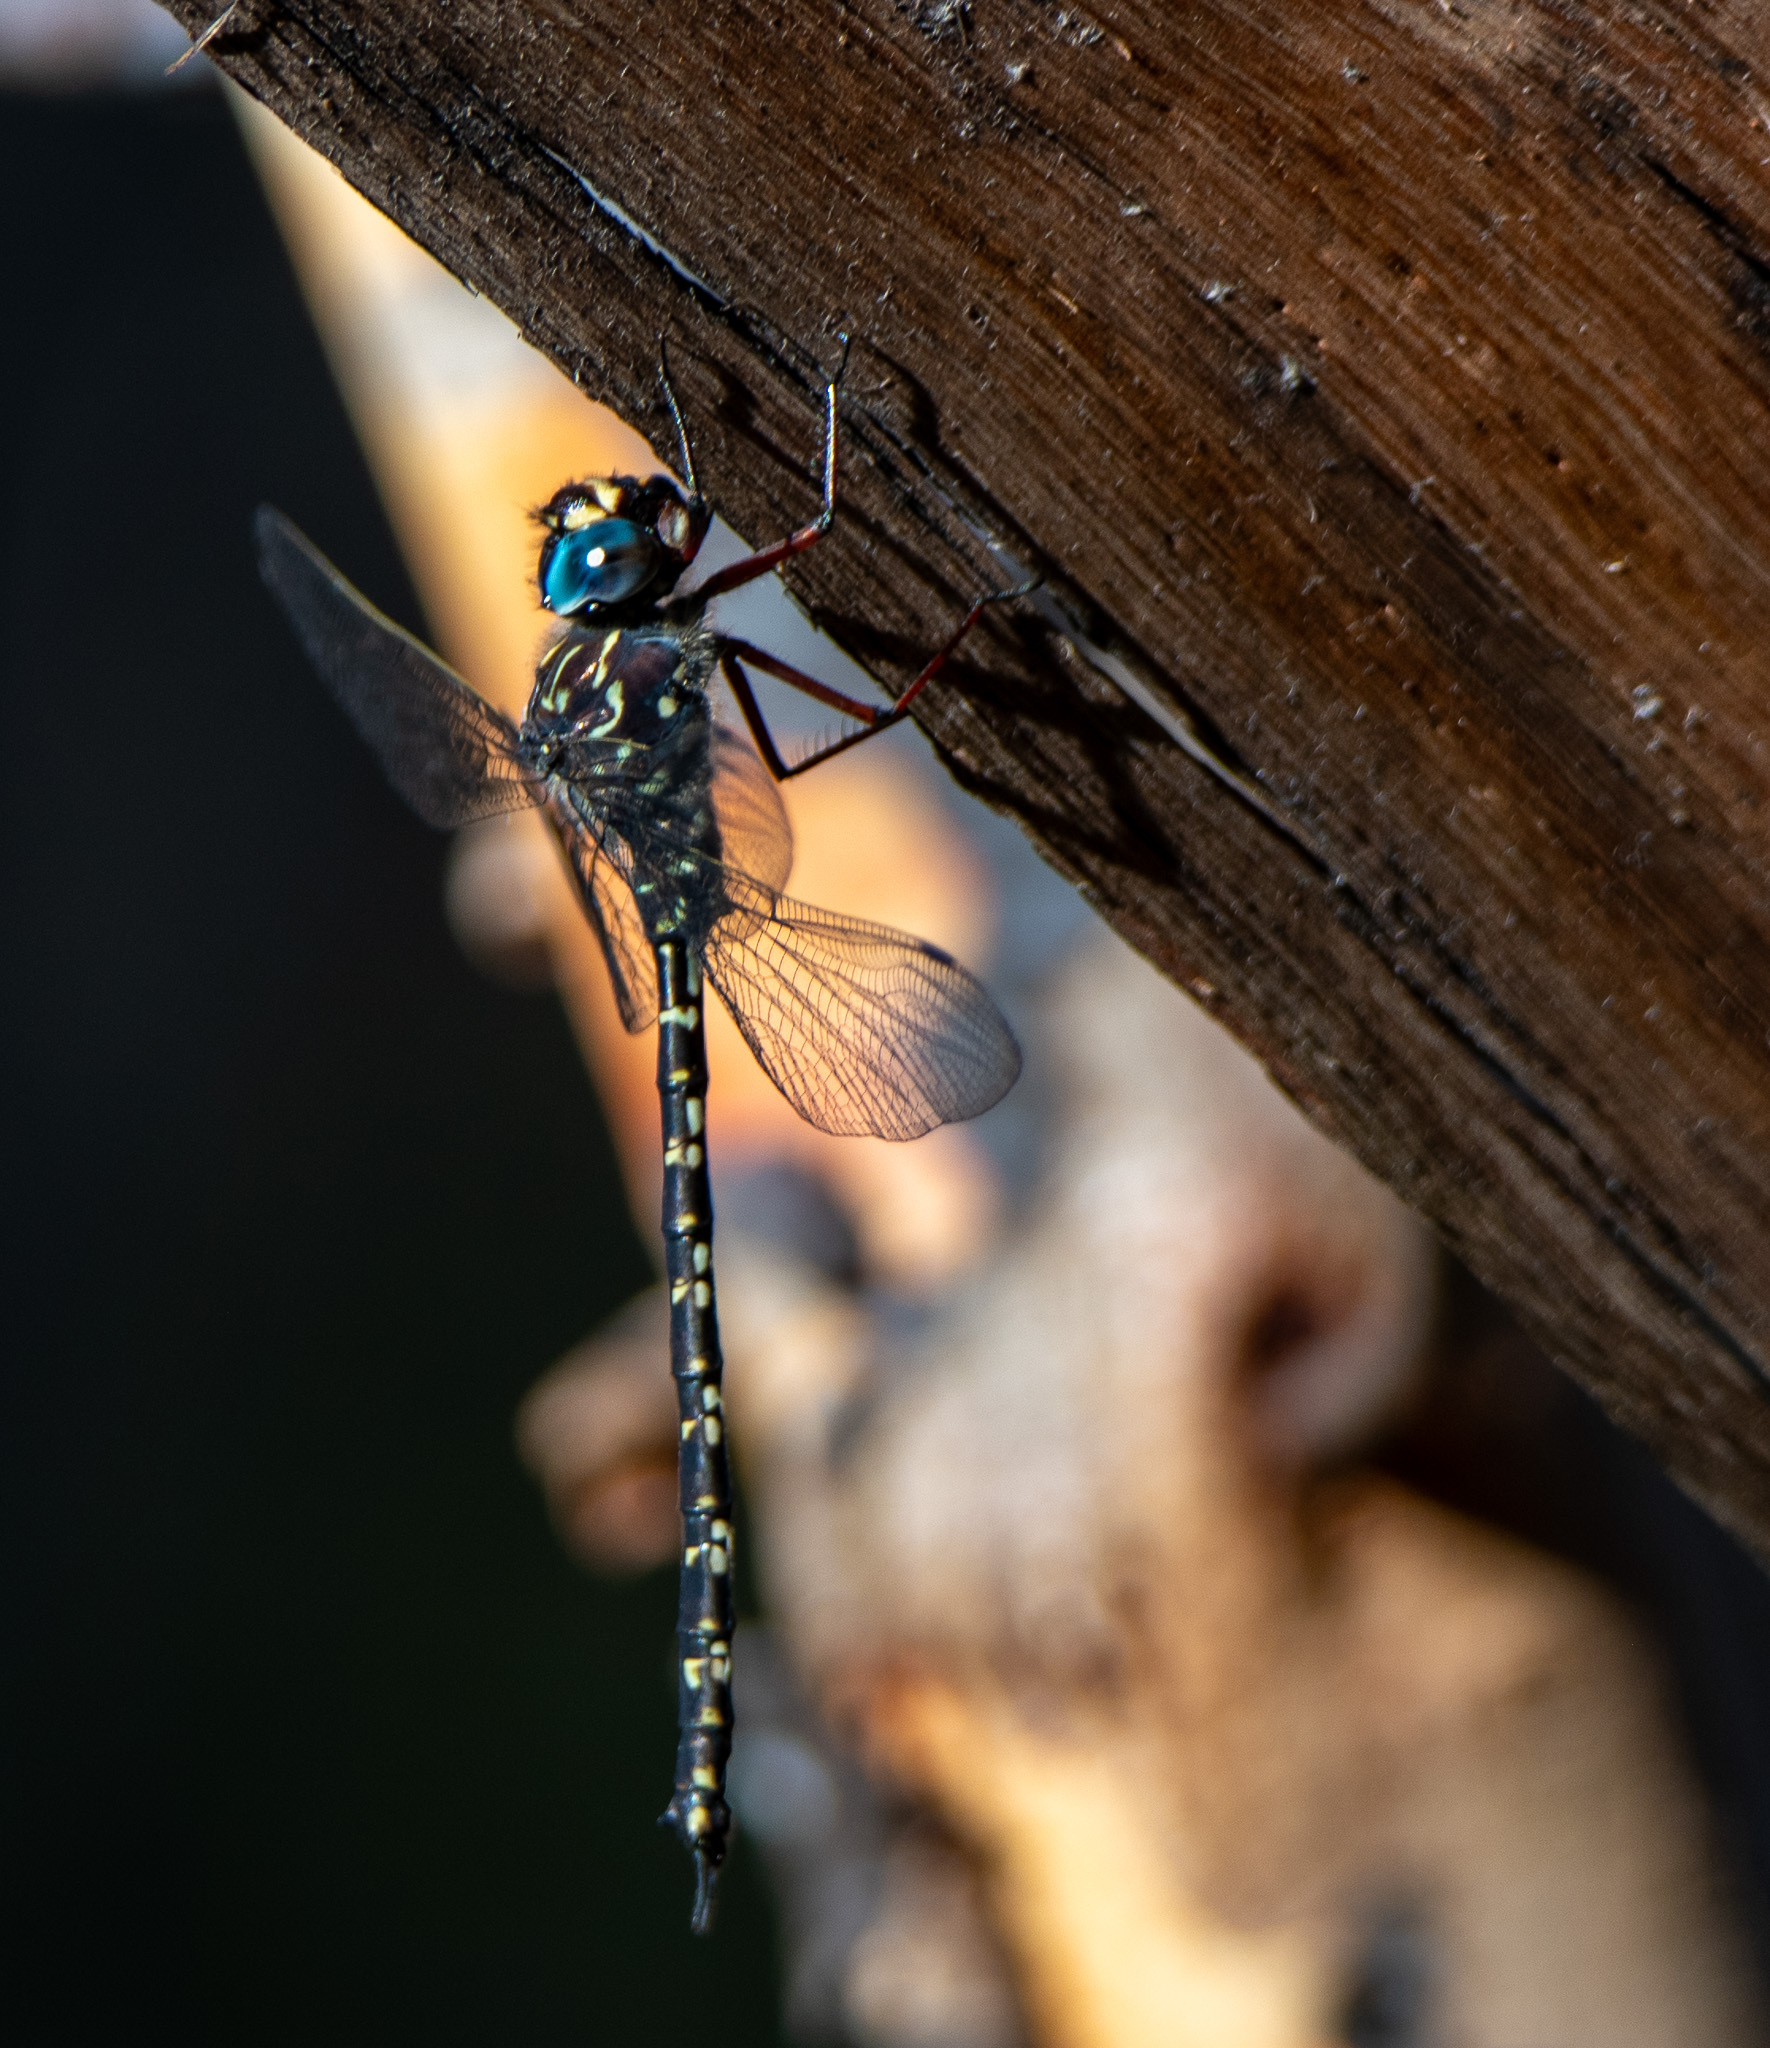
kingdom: Animalia
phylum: Arthropoda
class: Insecta
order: Odonata
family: Aeshnidae
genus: Austroaeschna
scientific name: Austroaeschna obscura
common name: Sydney mountain darner
